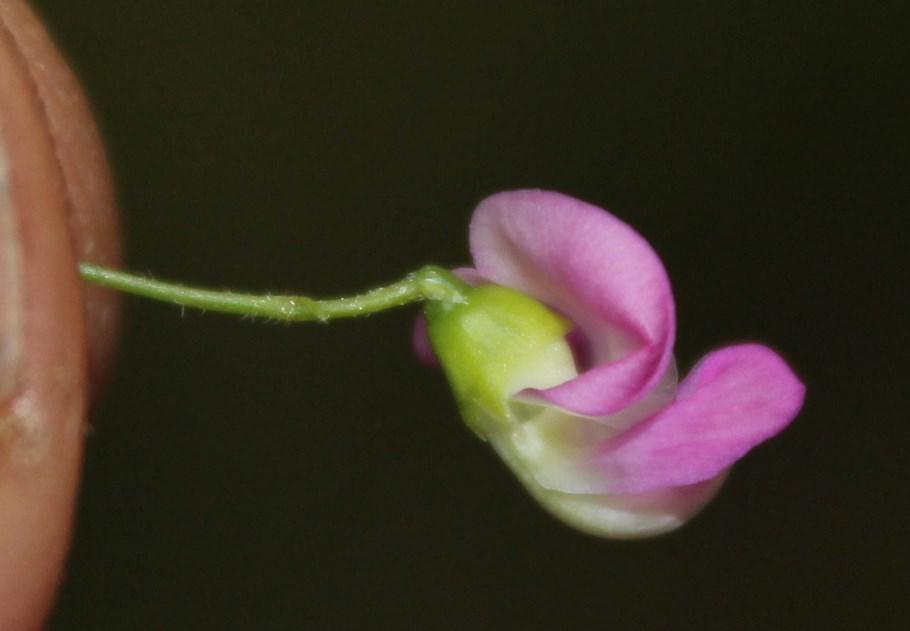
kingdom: Plantae
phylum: Tracheophyta
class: Magnoliopsida
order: Fabales
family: Fabaceae
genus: Dolichos
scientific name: Dolichos angustissimus
